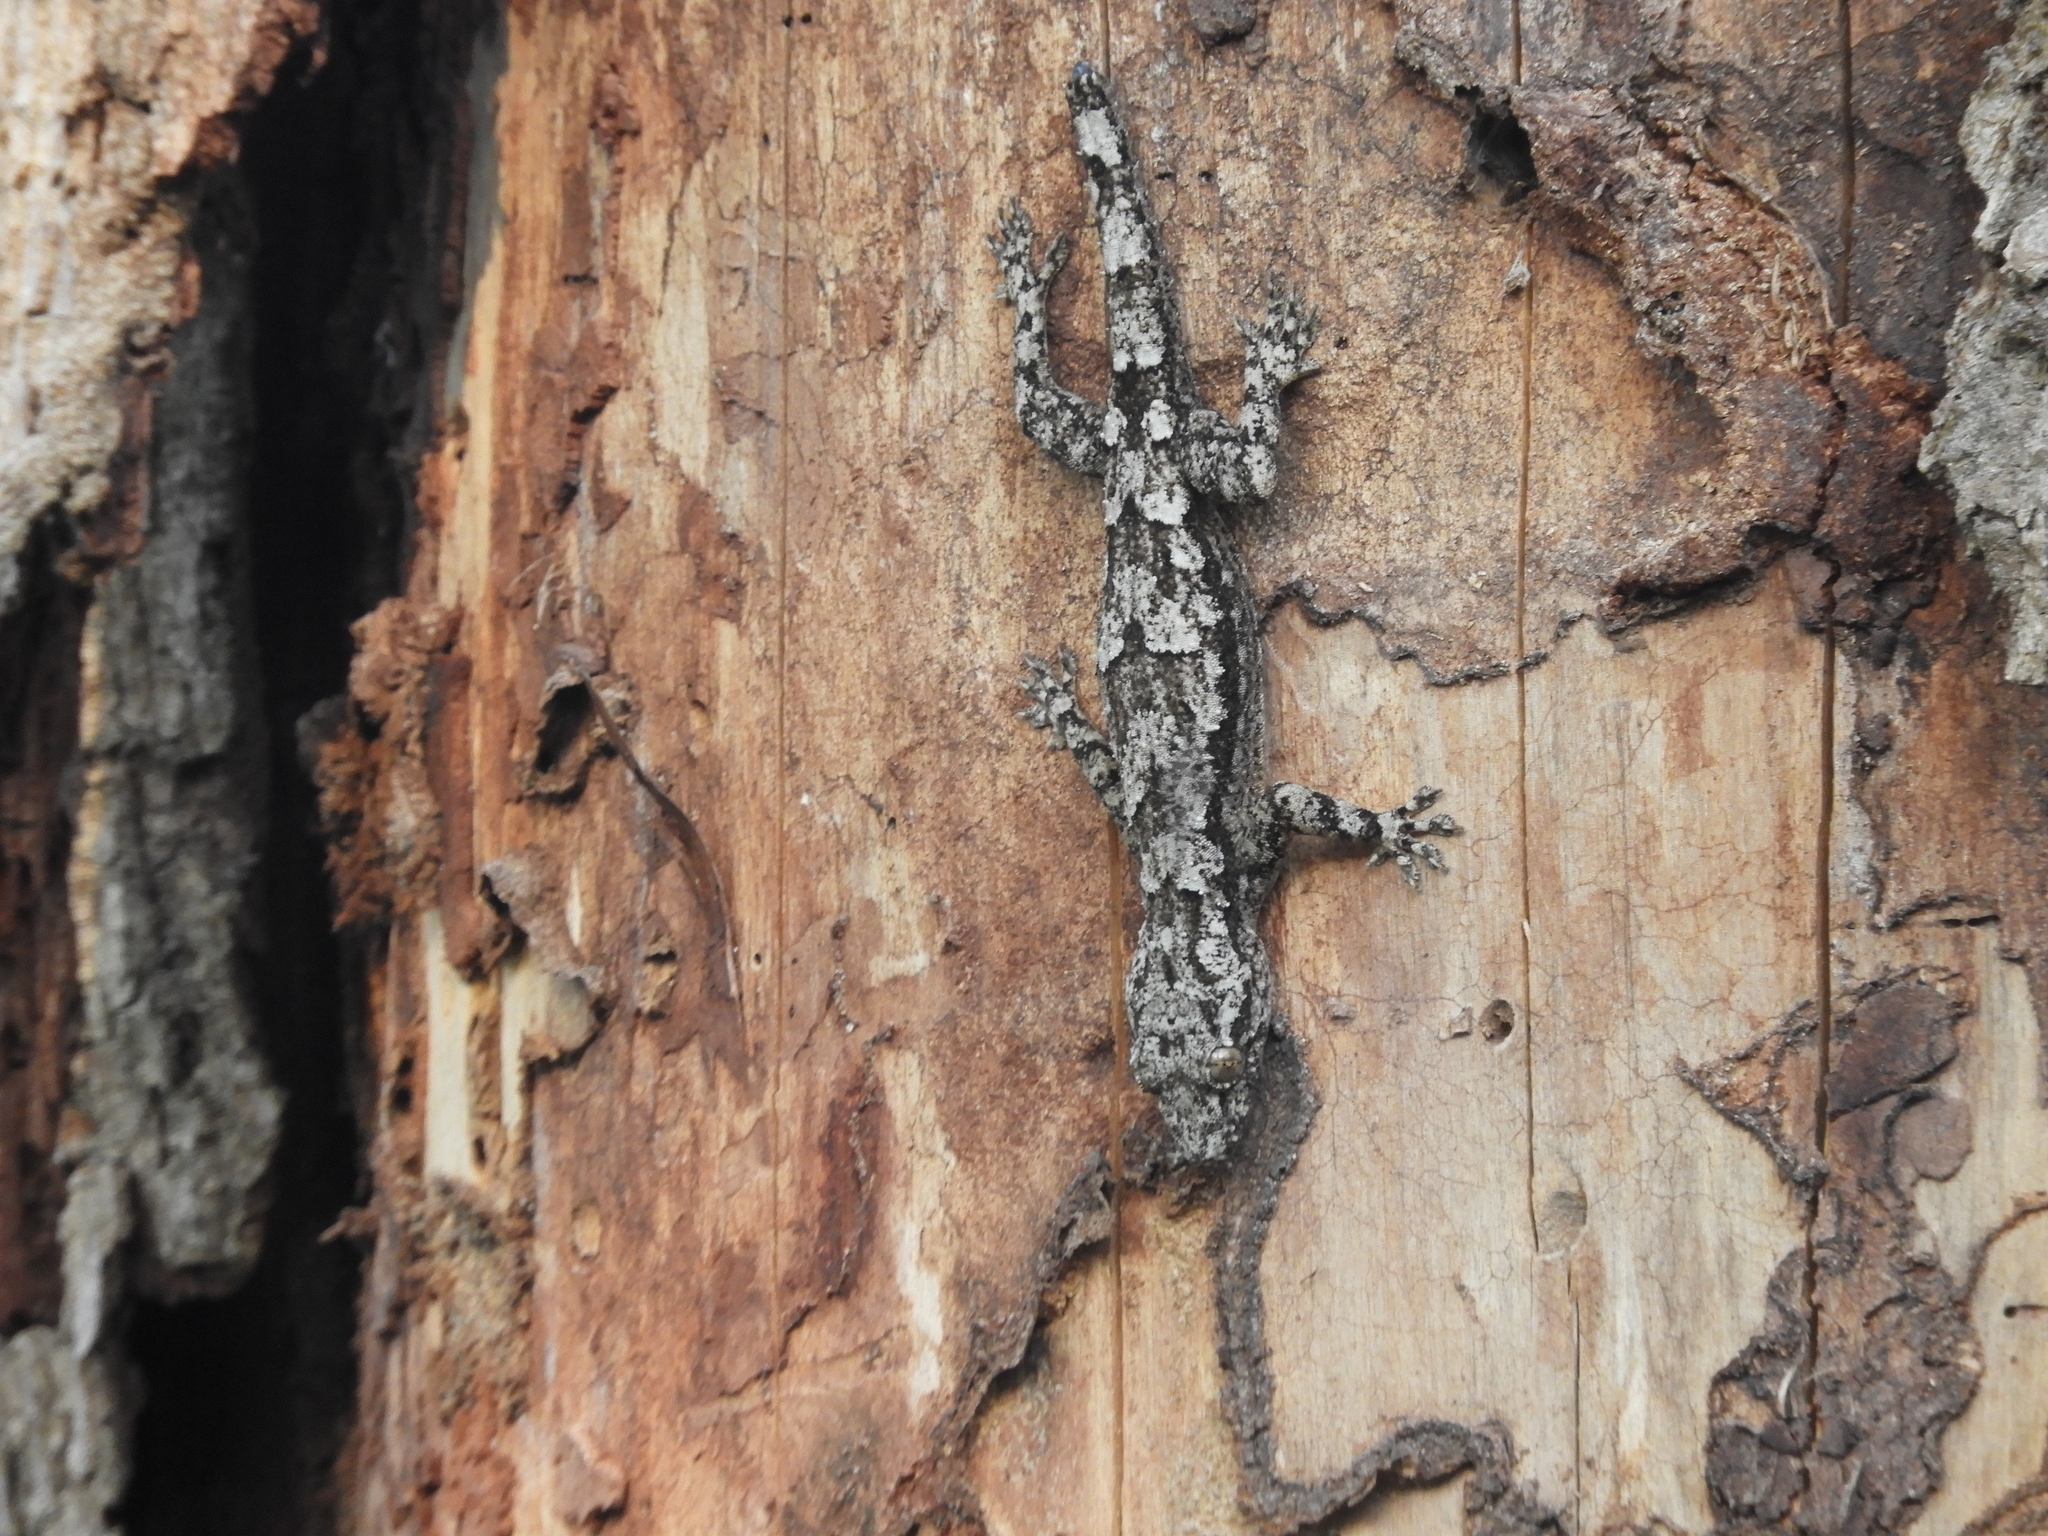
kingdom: Animalia
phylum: Chordata
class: Squamata
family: Gekkonidae
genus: Hemidactylus
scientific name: Hemidactylus platycephalus
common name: Baobab gecko
